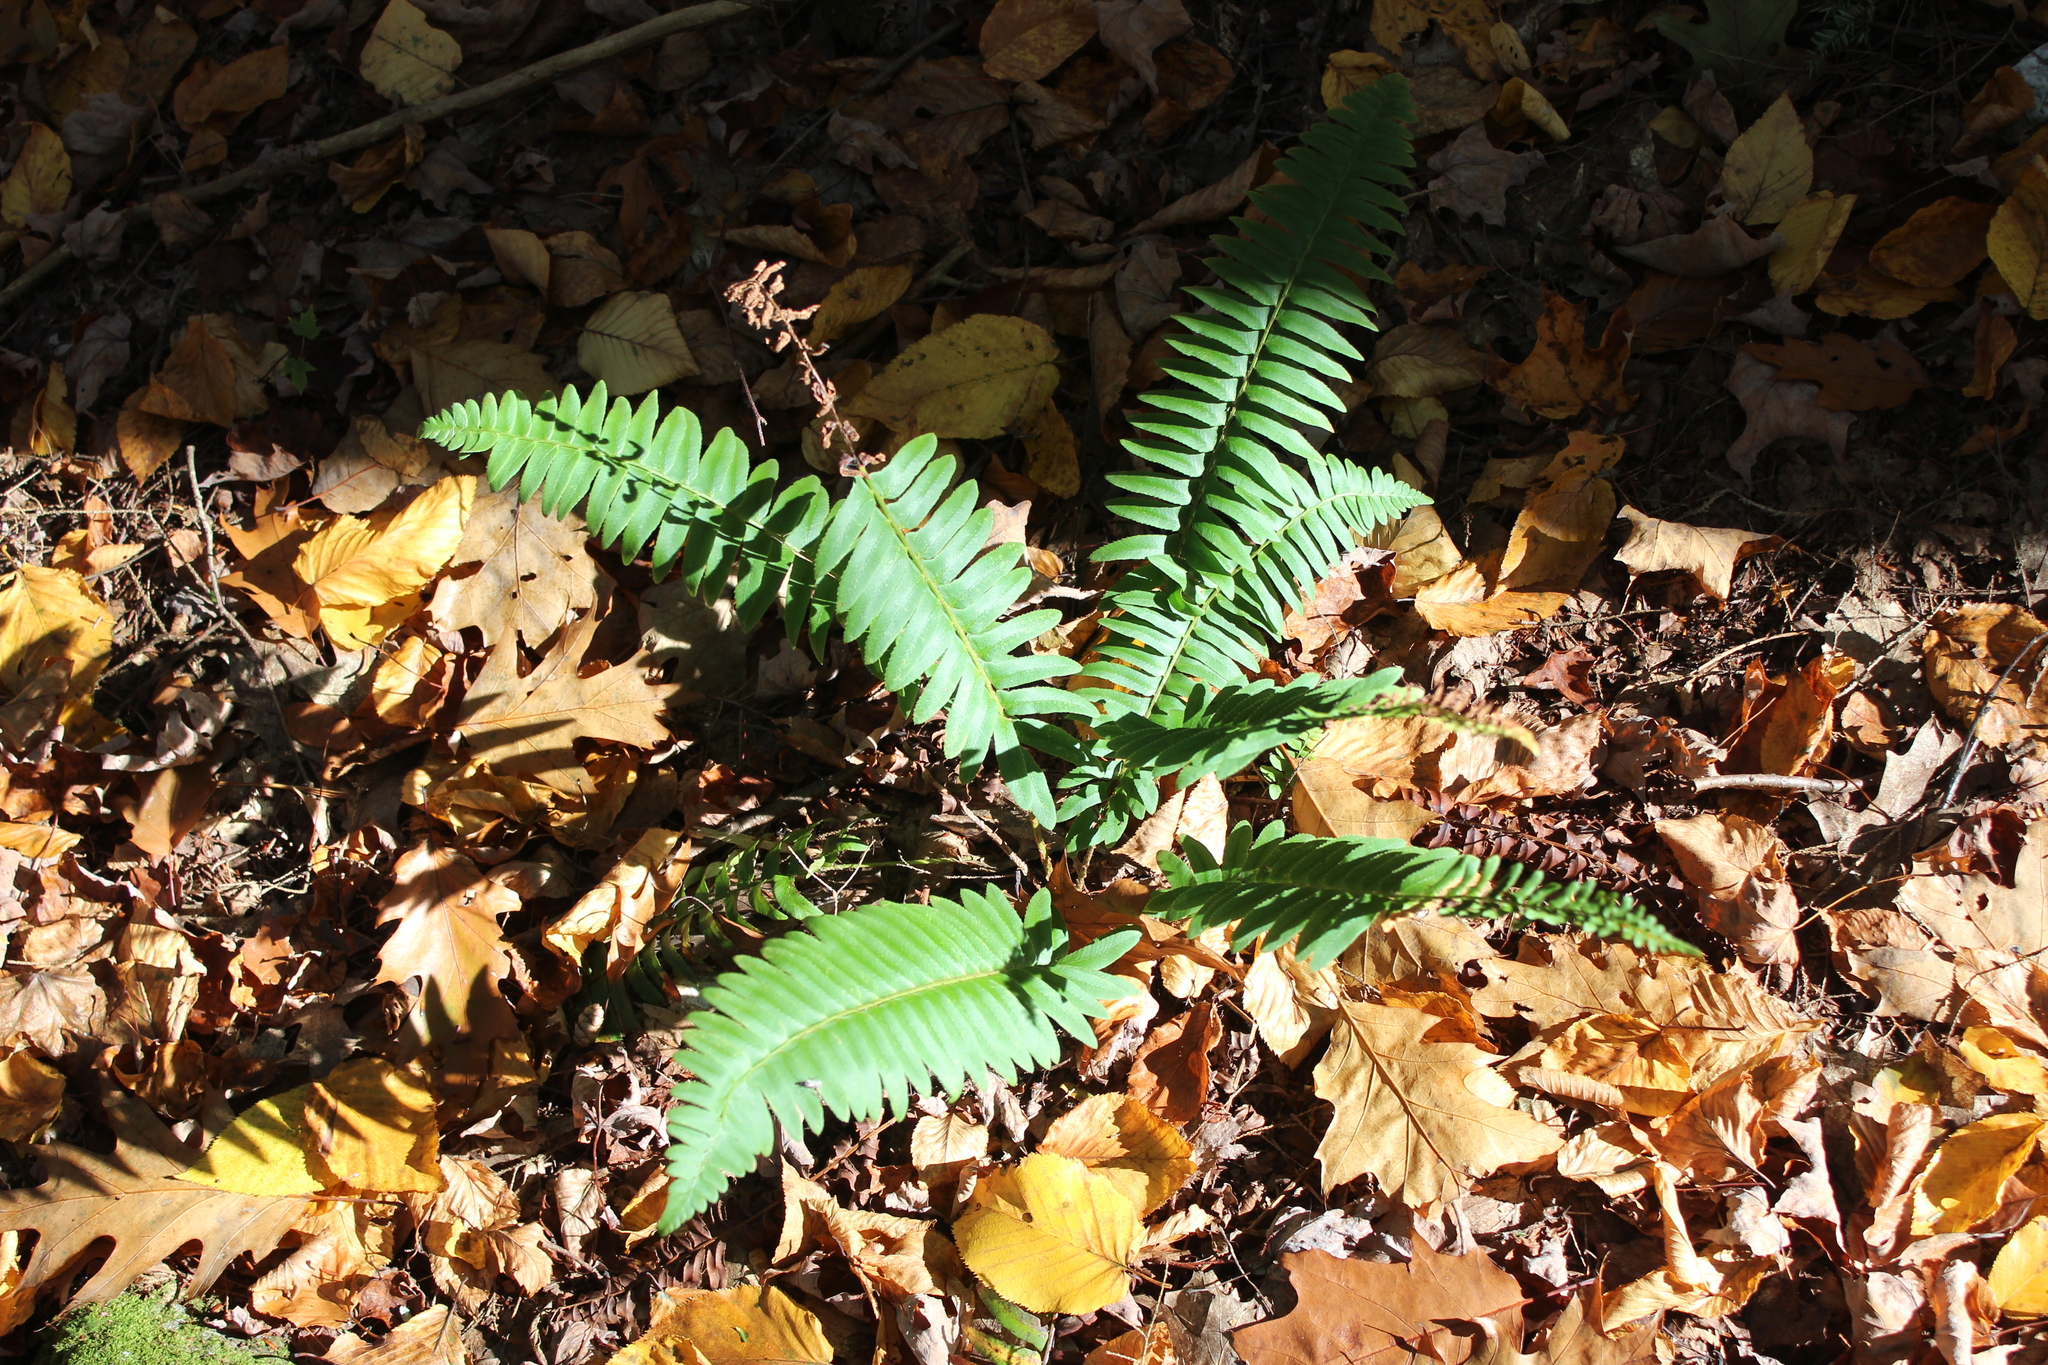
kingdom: Plantae
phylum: Tracheophyta
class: Polypodiopsida
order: Polypodiales
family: Dryopteridaceae
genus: Polystichum
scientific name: Polystichum acrostichoides
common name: Christmas fern
